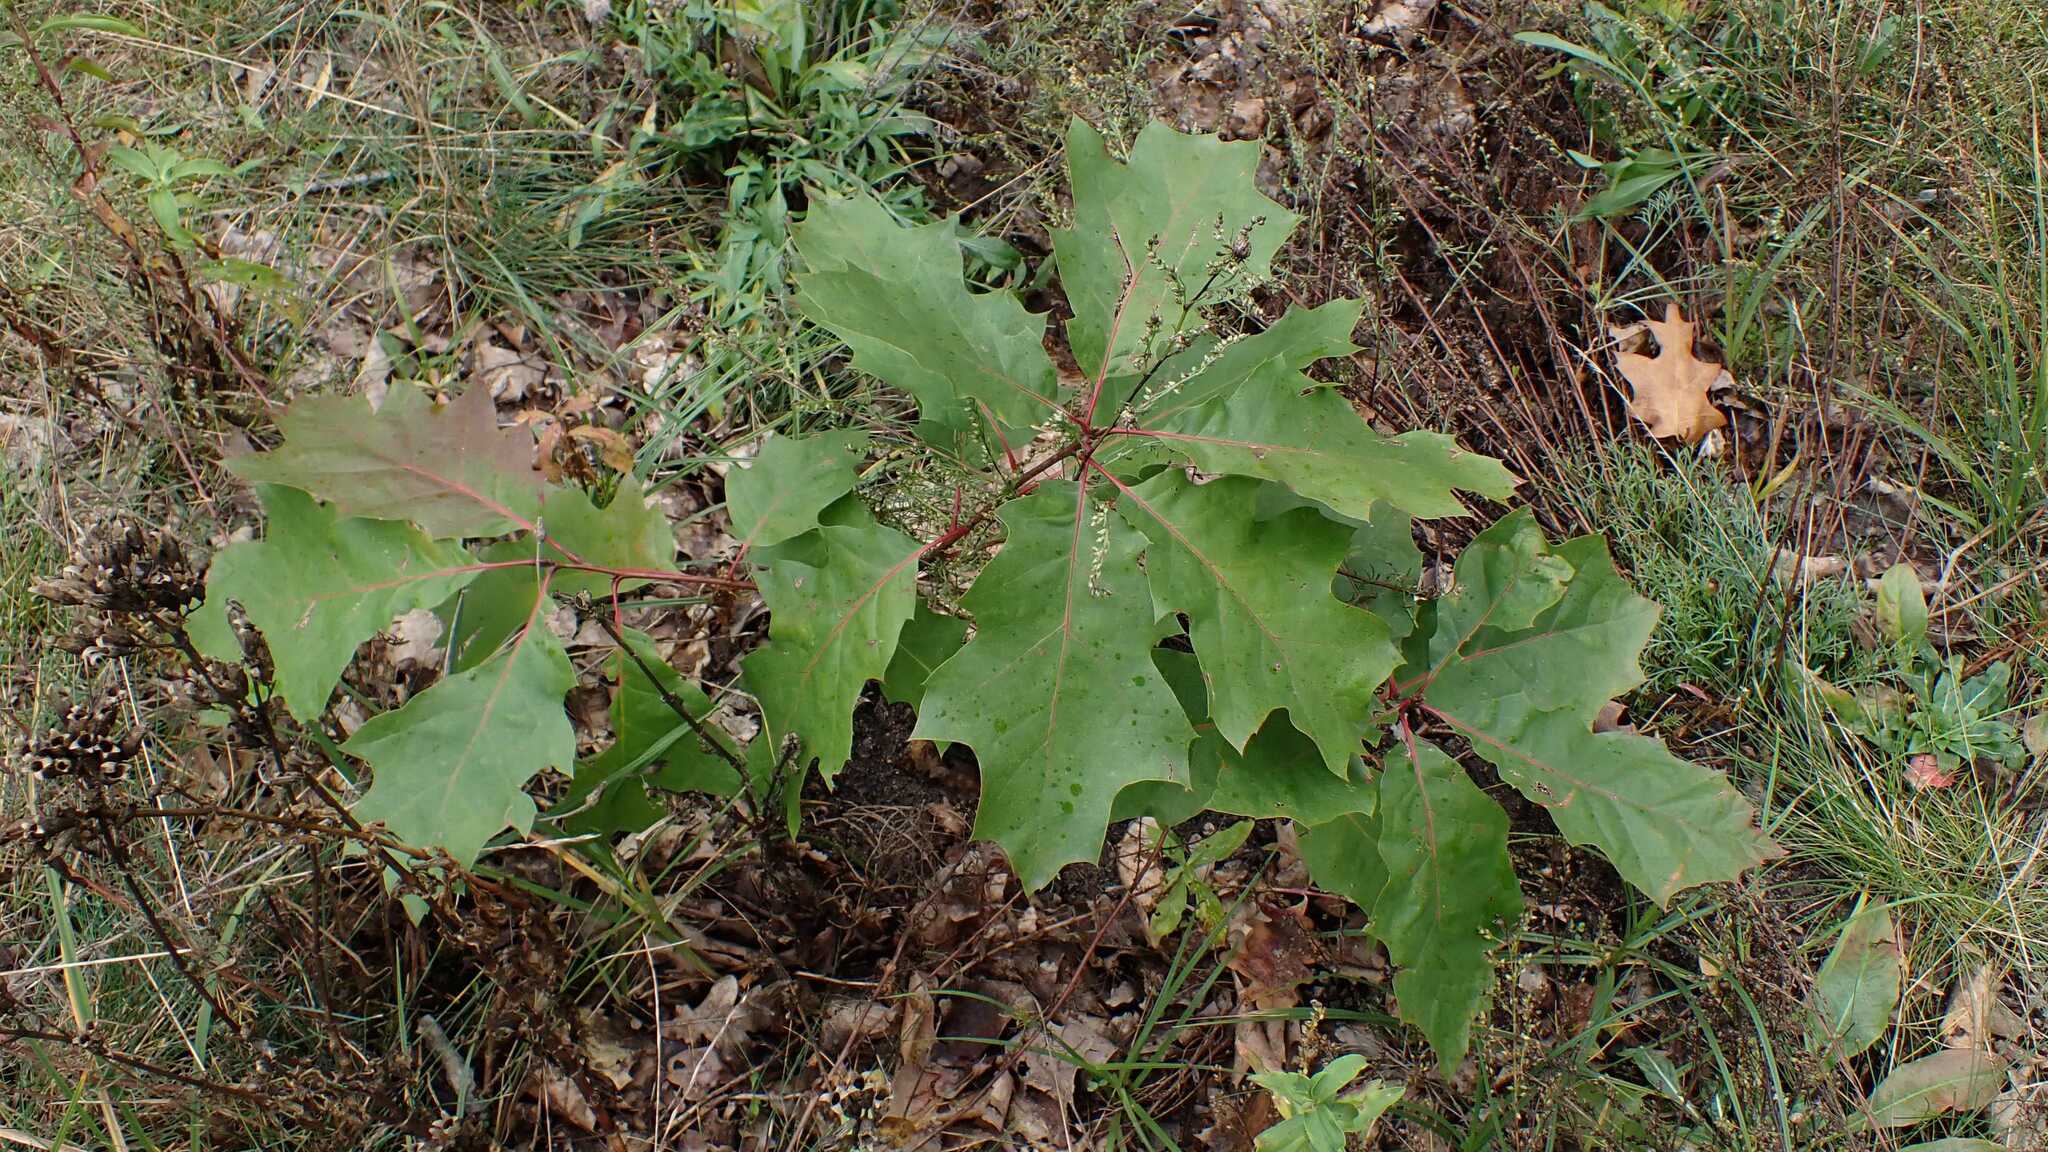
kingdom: Plantae
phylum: Tracheophyta
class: Magnoliopsida
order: Fagales
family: Fagaceae
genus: Quercus
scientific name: Quercus rubra
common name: Red oak
